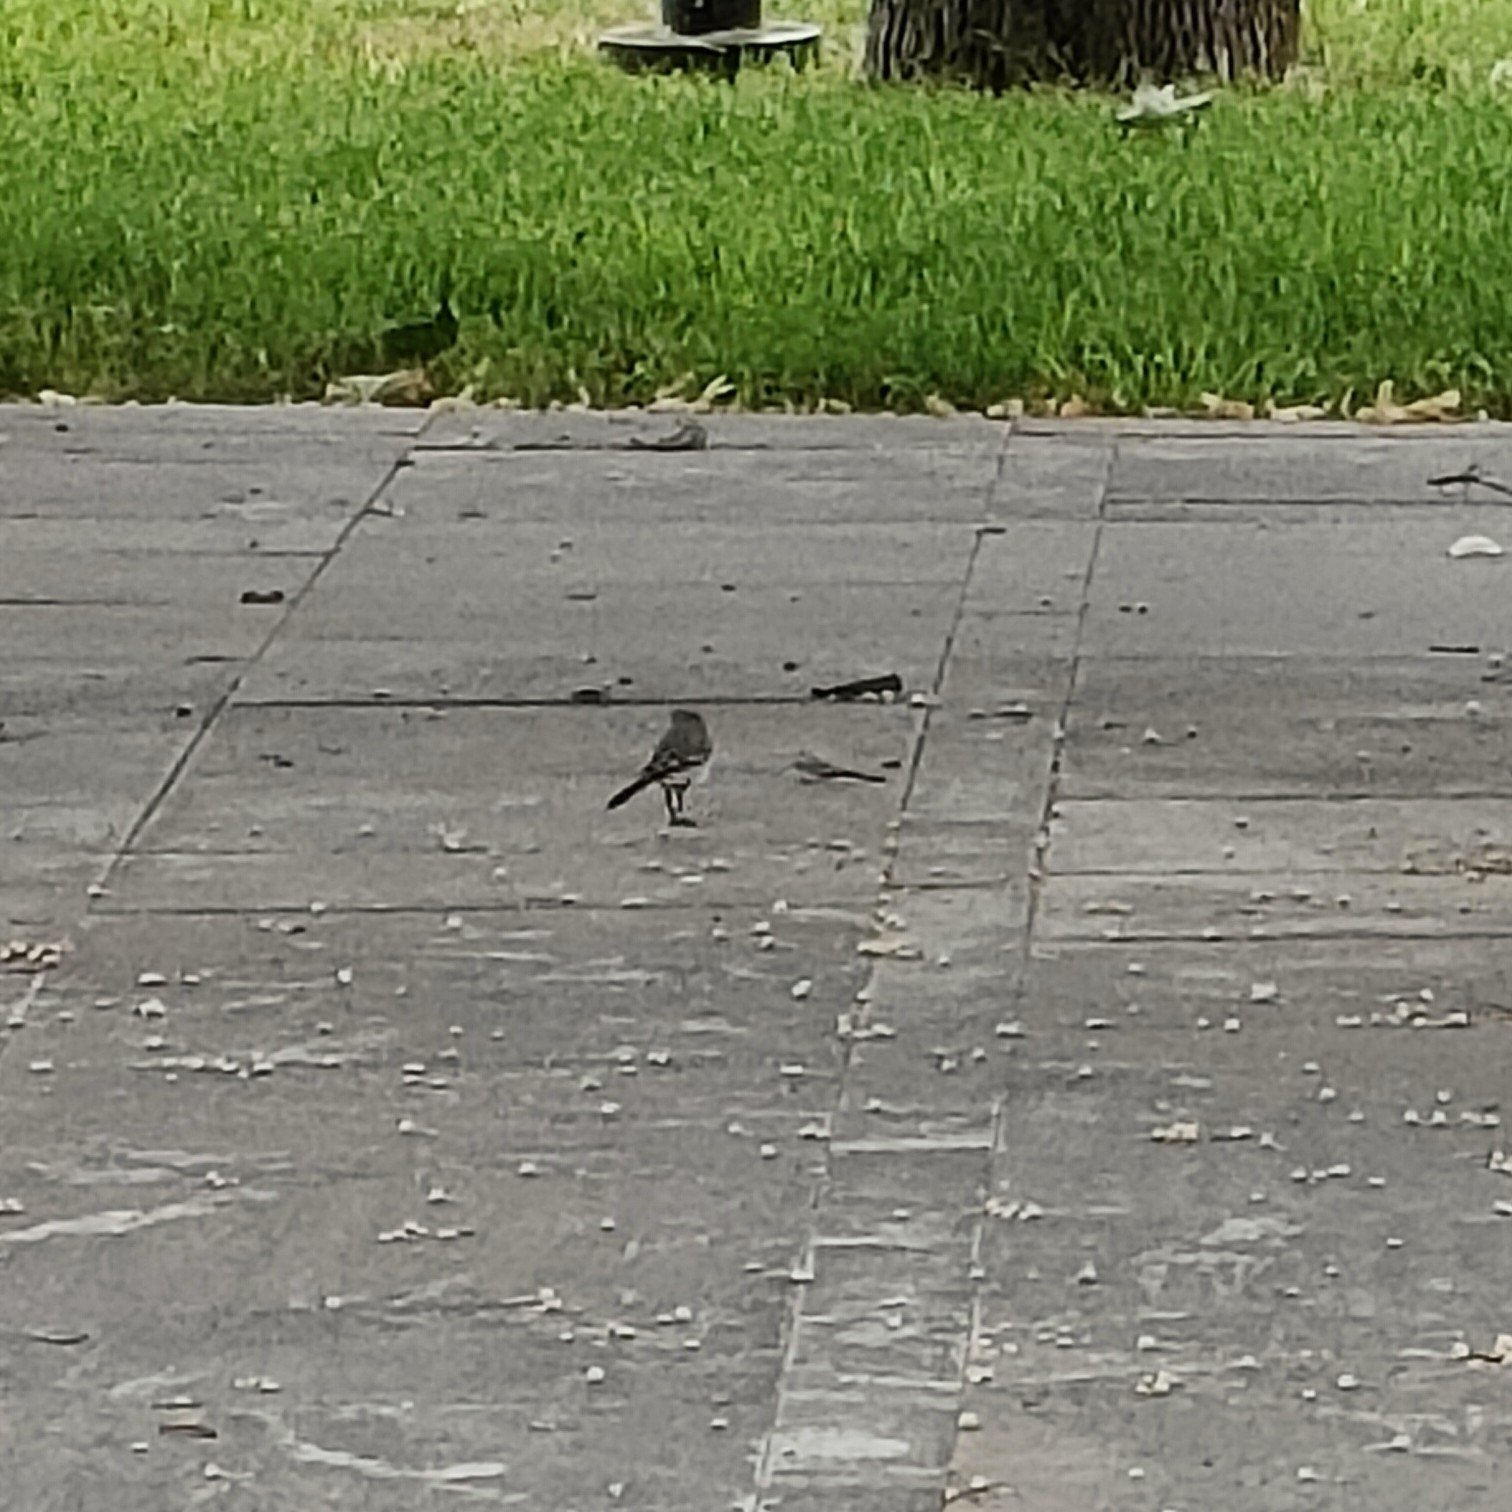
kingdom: Animalia
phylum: Chordata
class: Aves
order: Passeriformes
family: Motacillidae
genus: Motacilla
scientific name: Motacilla alba
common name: White wagtail
